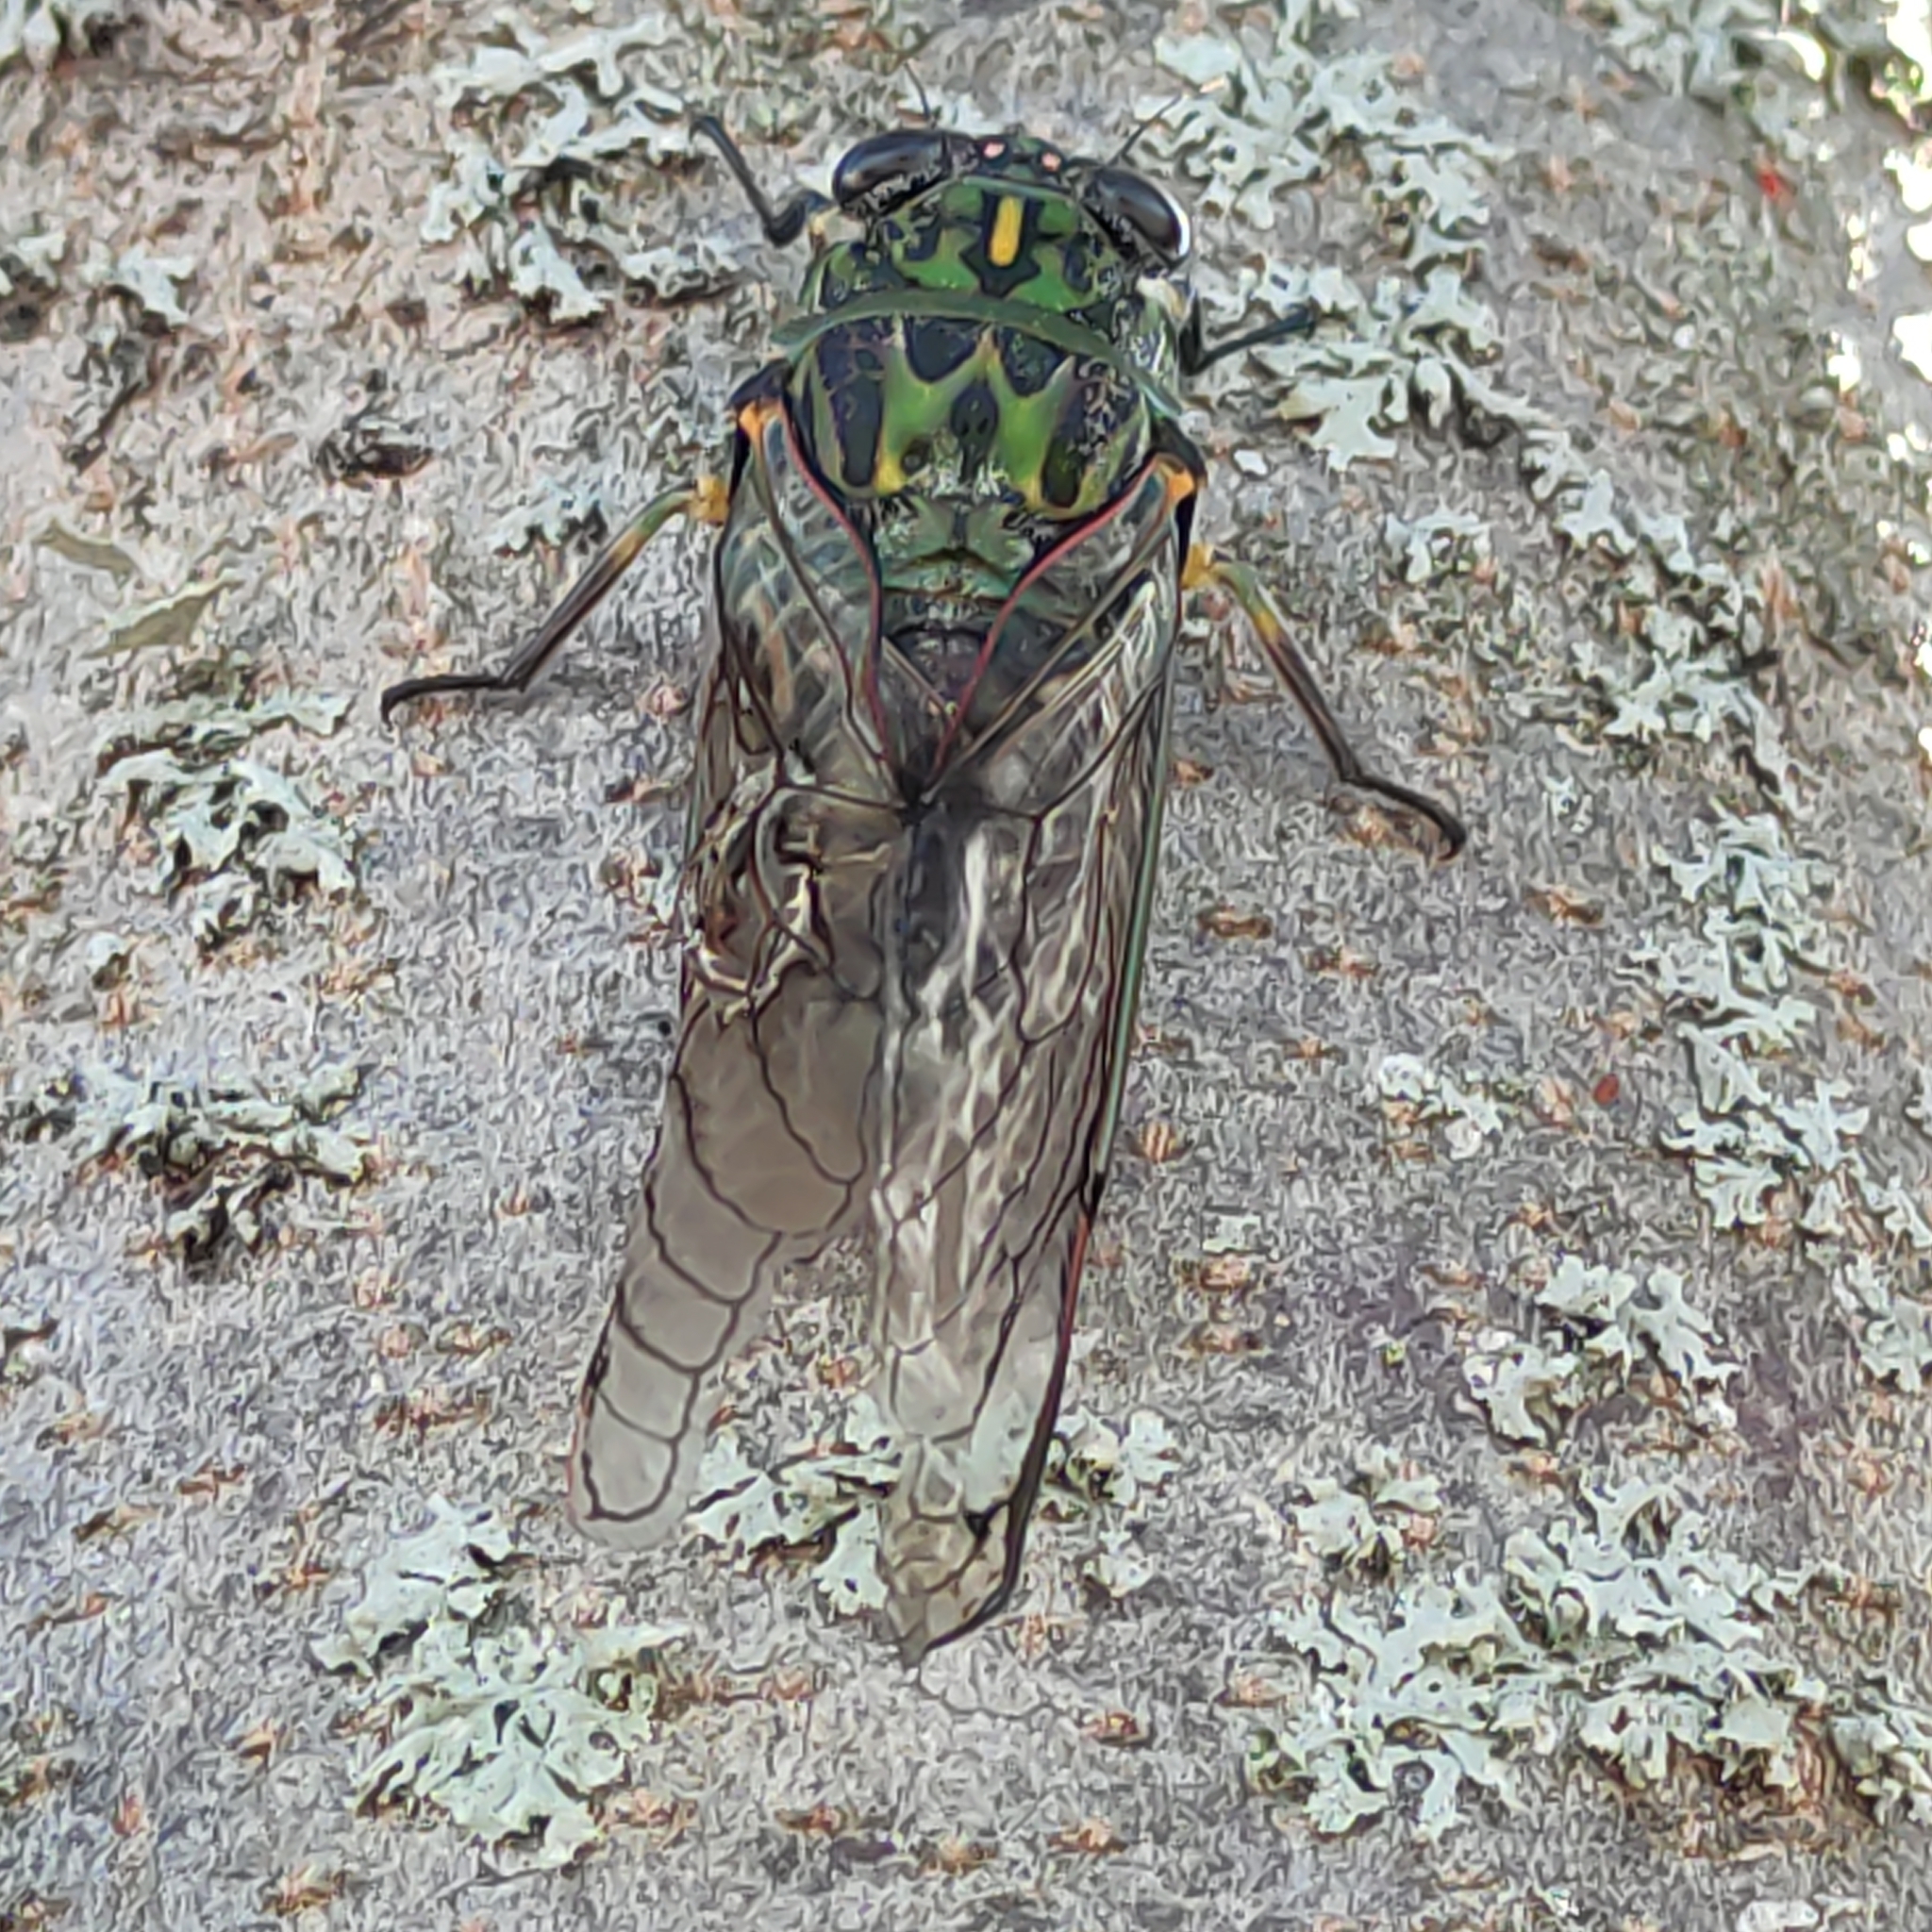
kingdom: Animalia
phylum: Arthropoda
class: Insecta
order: Hemiptera
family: Cicadidae
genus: Amphipsalta
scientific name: Amphipsalta zelandica
